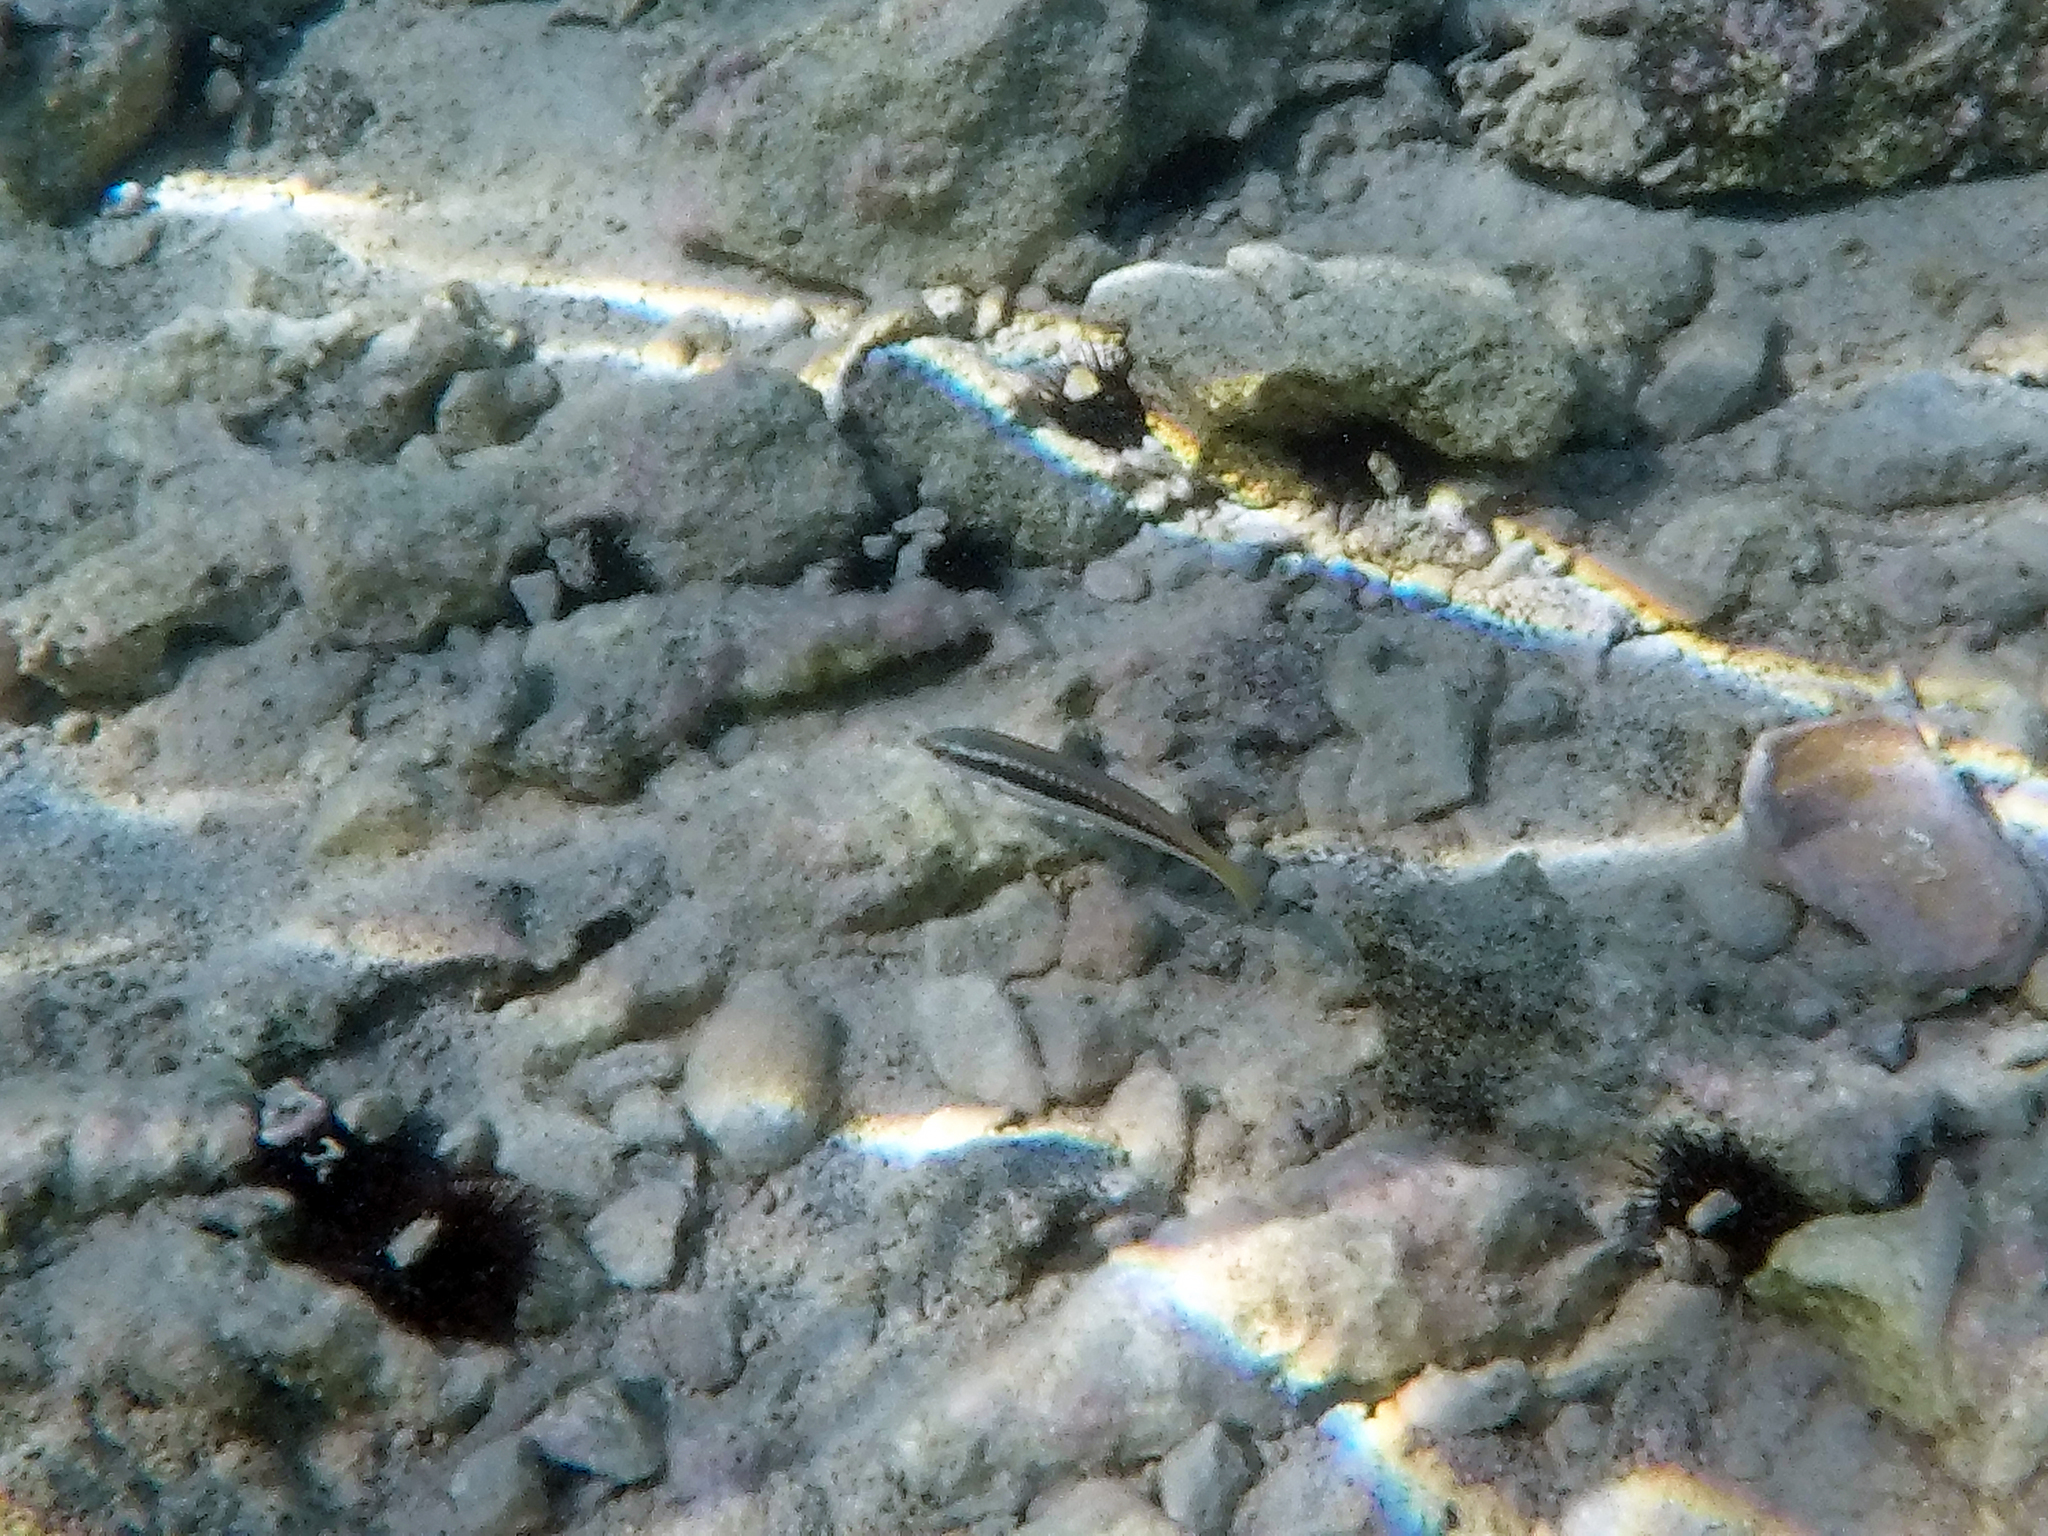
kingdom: Animalia
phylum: Chordata
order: Perciformes
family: Labridae
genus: Coris
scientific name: Coris julis
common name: Rainbow wrasse
